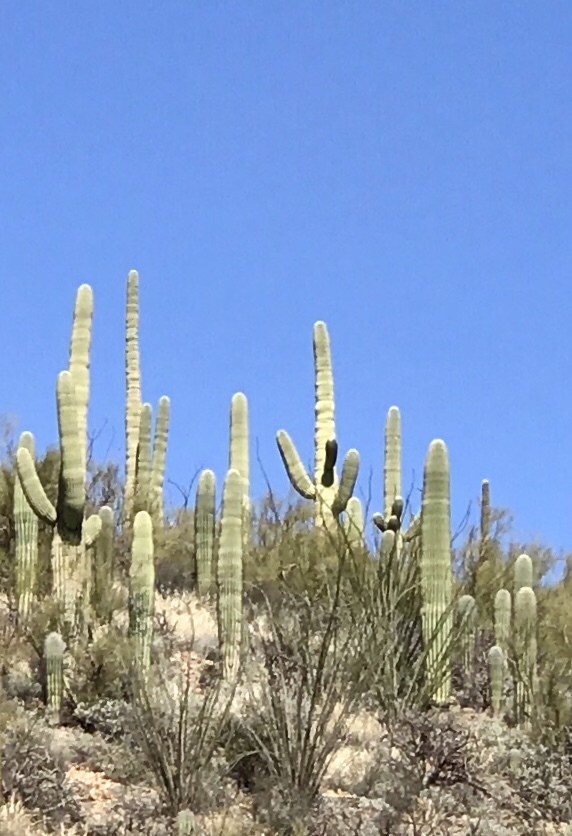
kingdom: Plantae
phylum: Tracheophyta
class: Magnoliopsida
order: Caryophyllales
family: Cactaceae
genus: Carnegiea
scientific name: Carnegiea gigantea
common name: Saguaro
